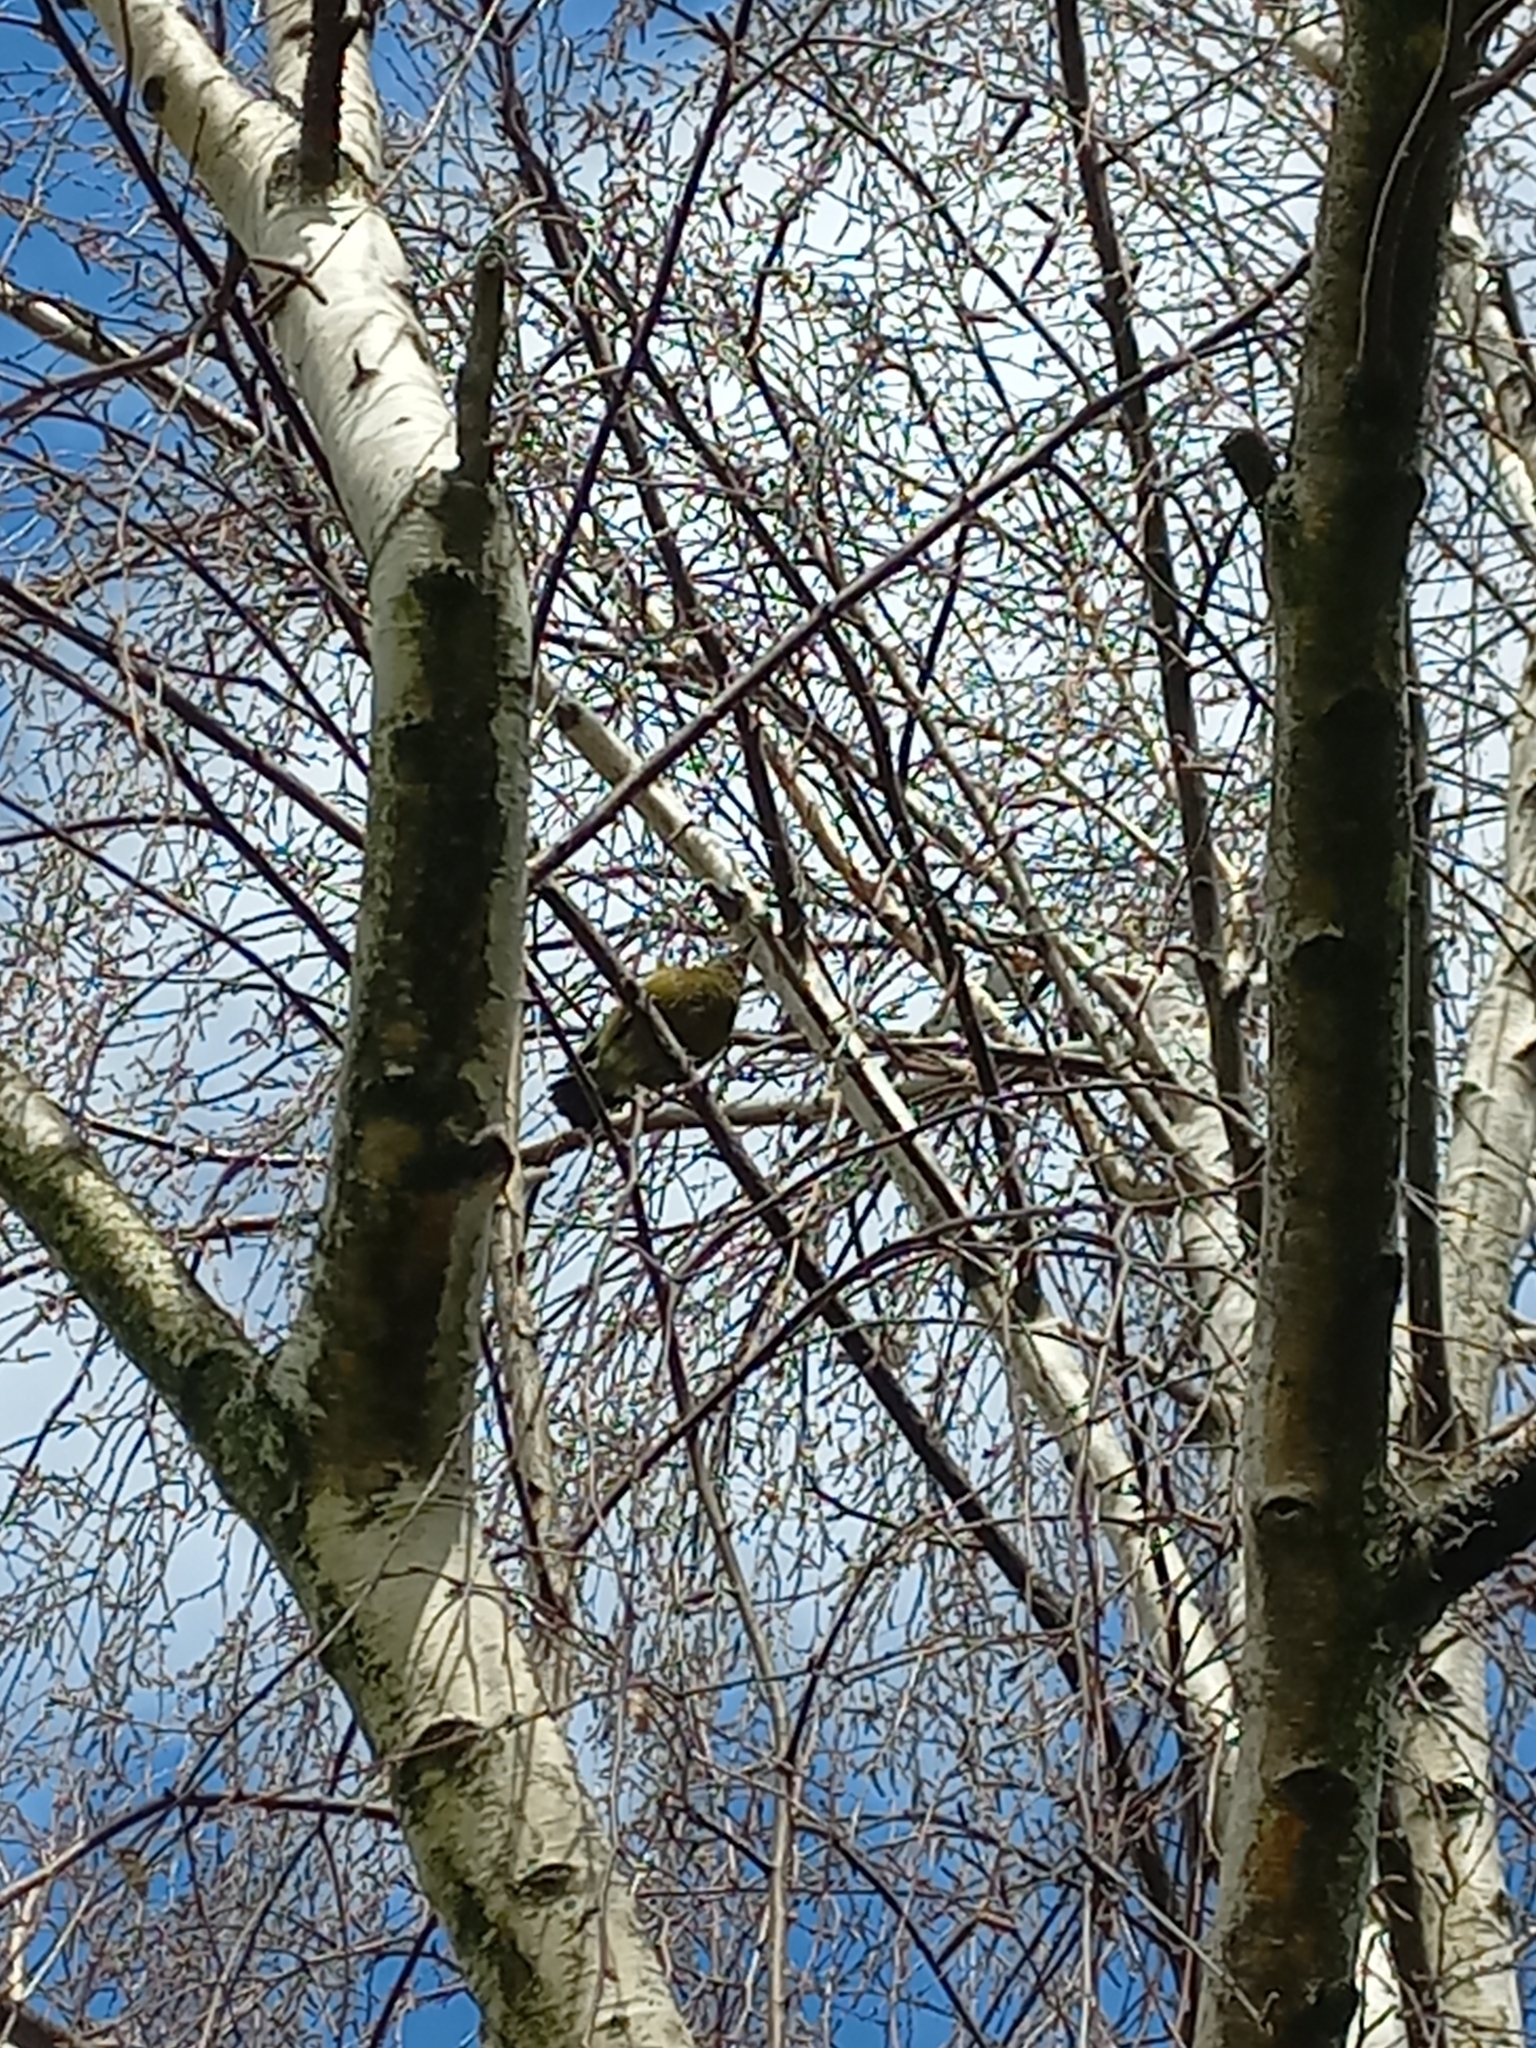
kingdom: Animalia
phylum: Chordata
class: Aves
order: Passeriformes
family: Meliphagidae
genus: Anthornis
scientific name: Anthornis melanura
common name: New zealand bellbird
